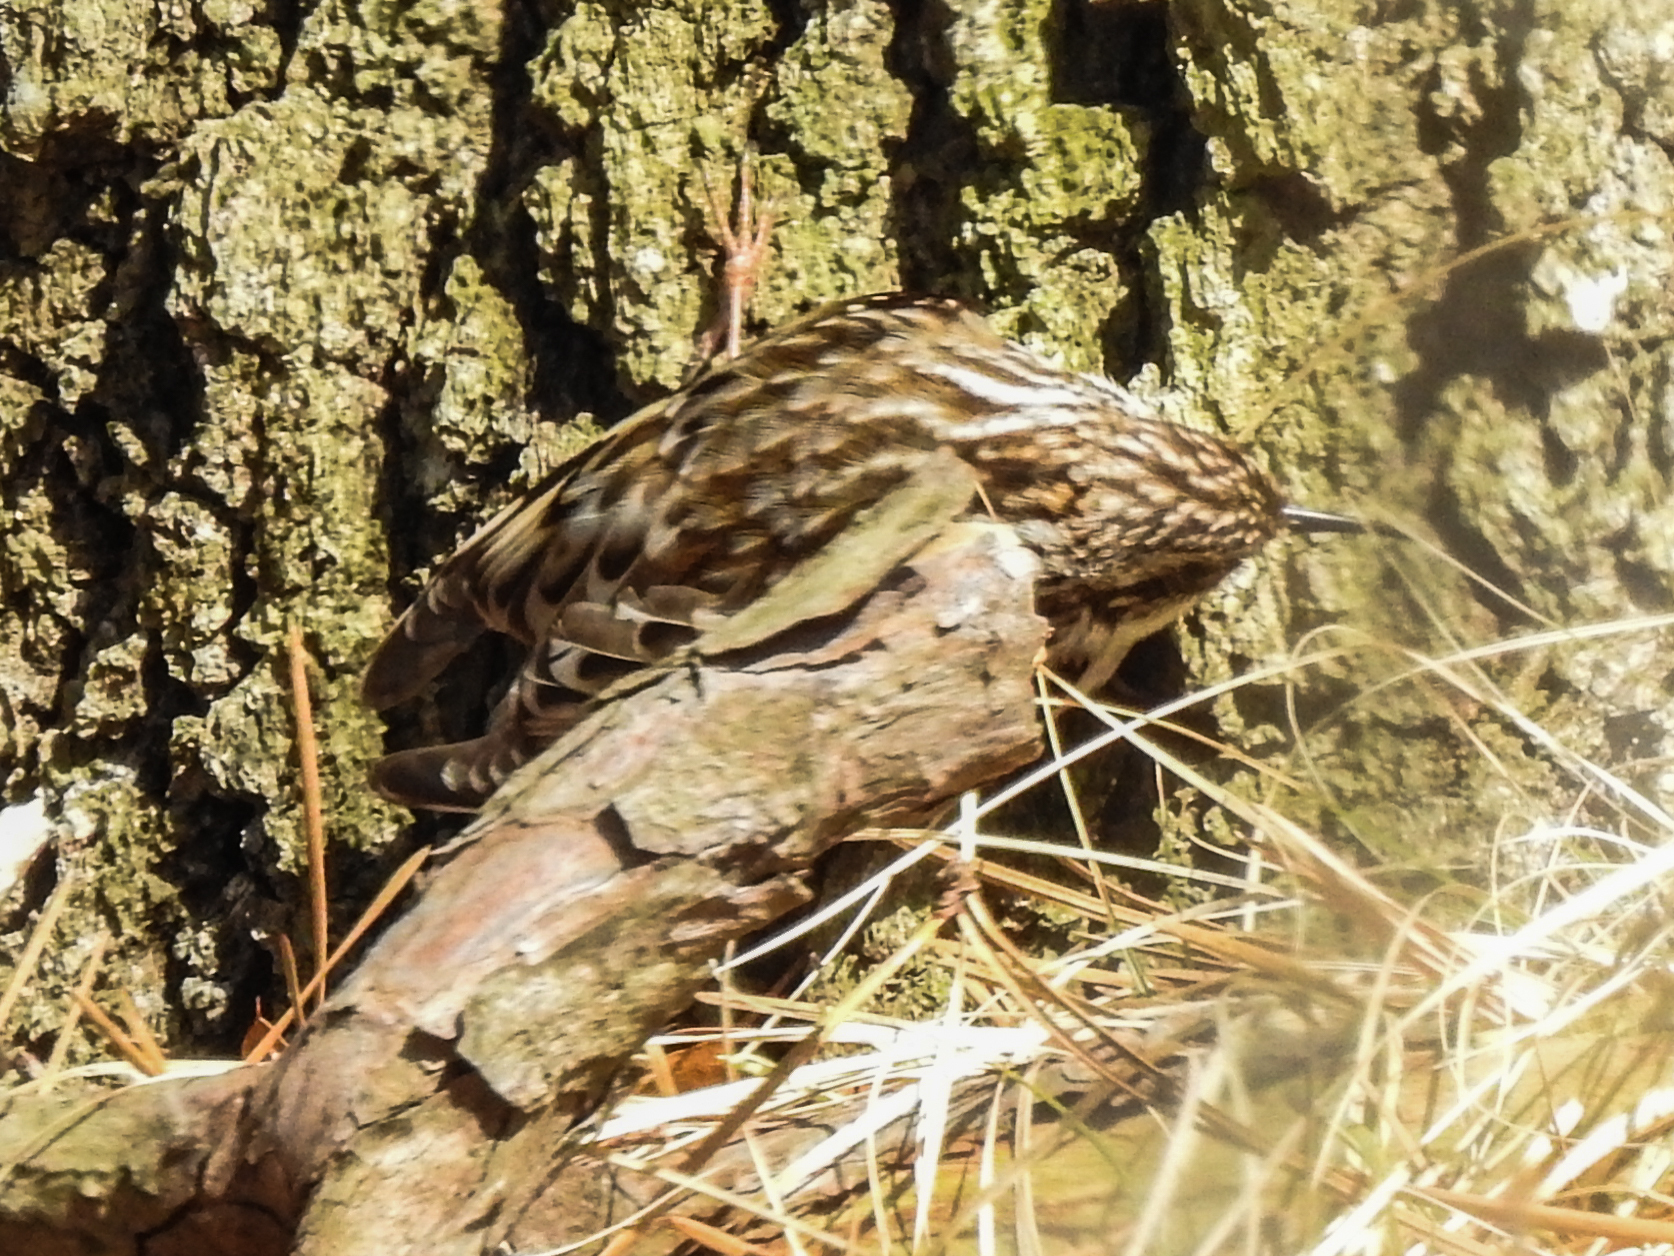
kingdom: Animalia
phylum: Chordata
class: Aves
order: Passeriformes
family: Certhiidae
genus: Certhia
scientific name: Certhia americana
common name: Brown creeper
